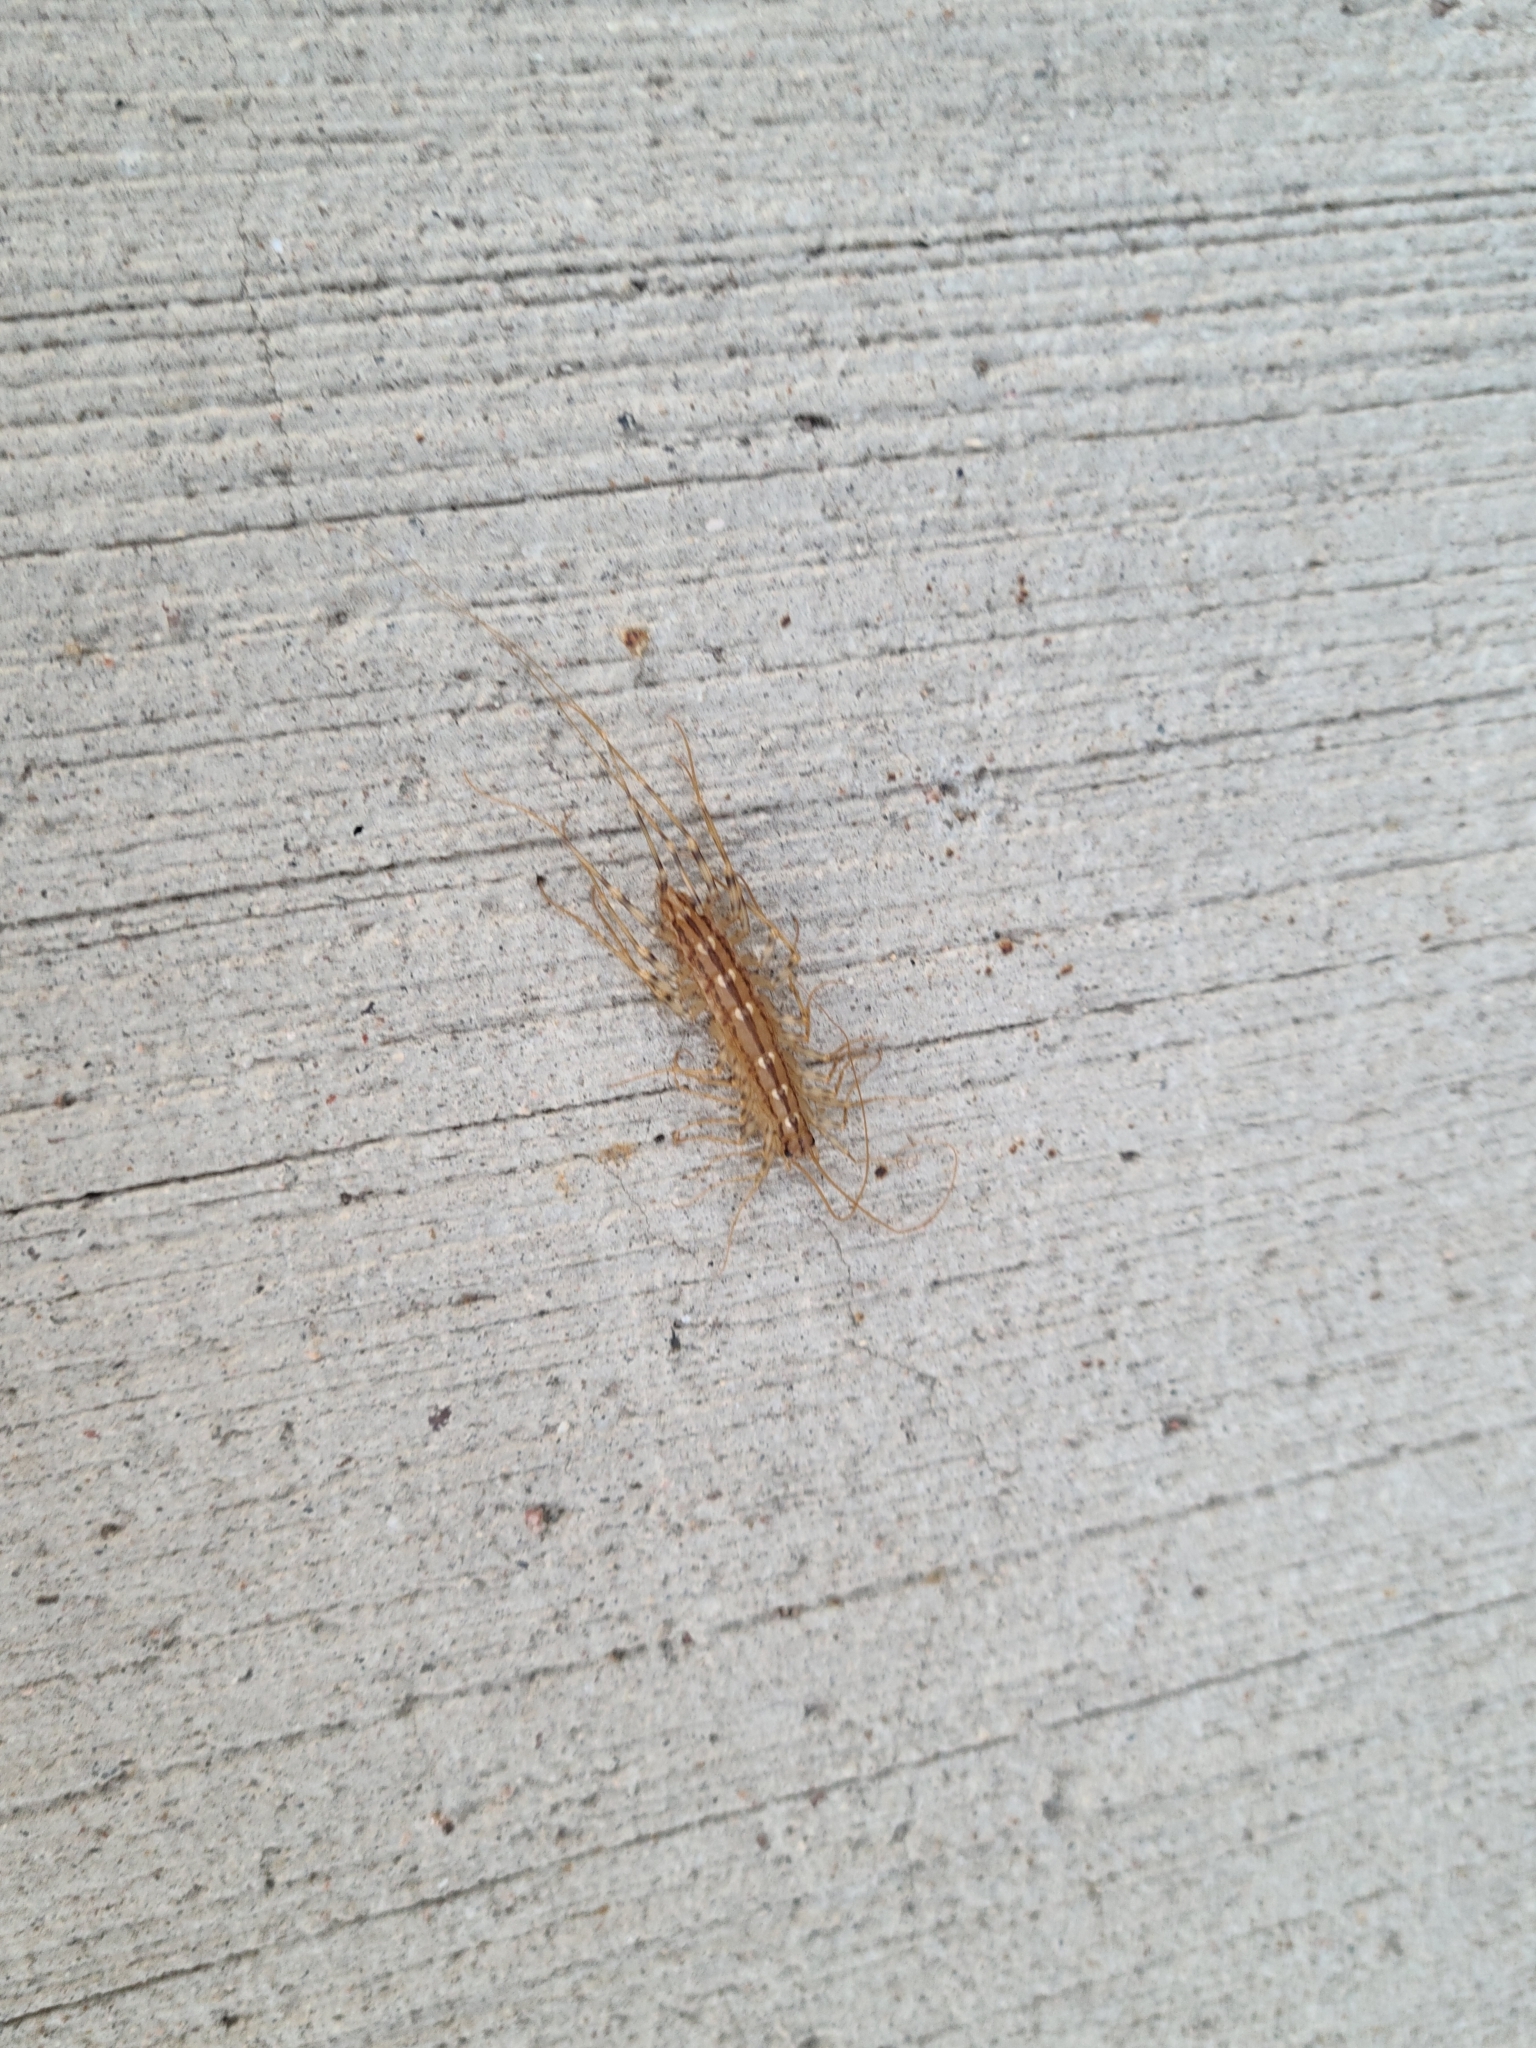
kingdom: Animalia
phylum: Arthropoda
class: Chilopoda
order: Scutigeromorpha
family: Scutigeridae
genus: Scutigera
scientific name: Scutigera coleoptrata
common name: House centipede
